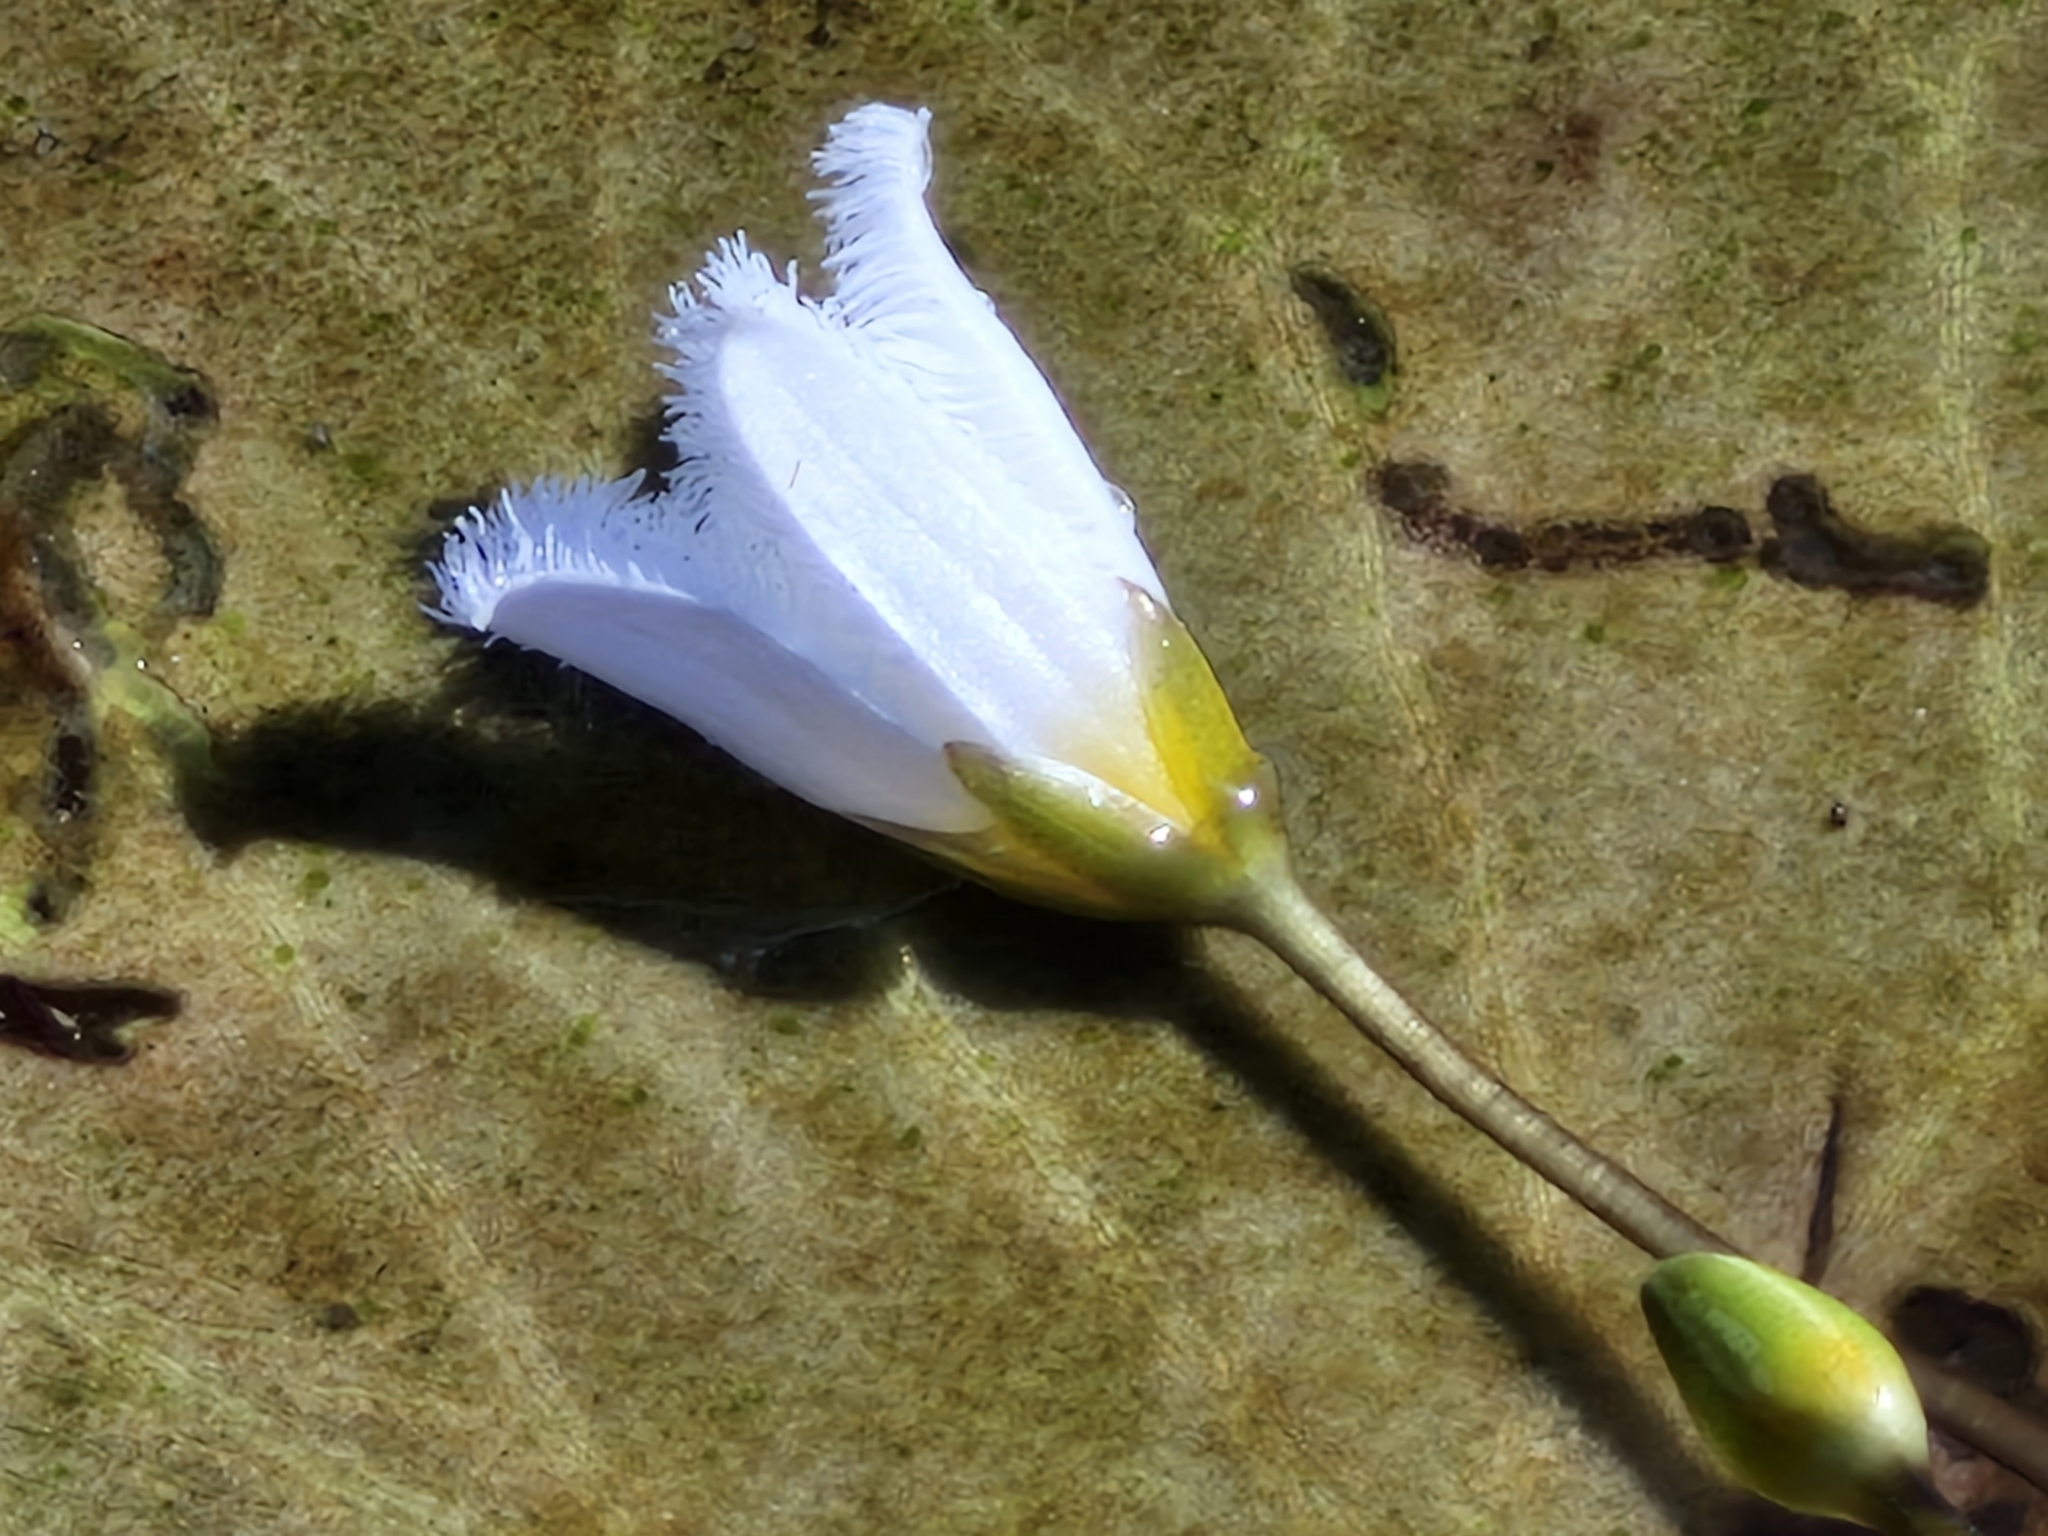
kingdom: Plantae
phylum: Tracheophyta
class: Magnoliopsida
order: Asterales
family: Menyanthaceae
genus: Nymphoides
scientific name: Nymphoides indica
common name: Water-snowflake
